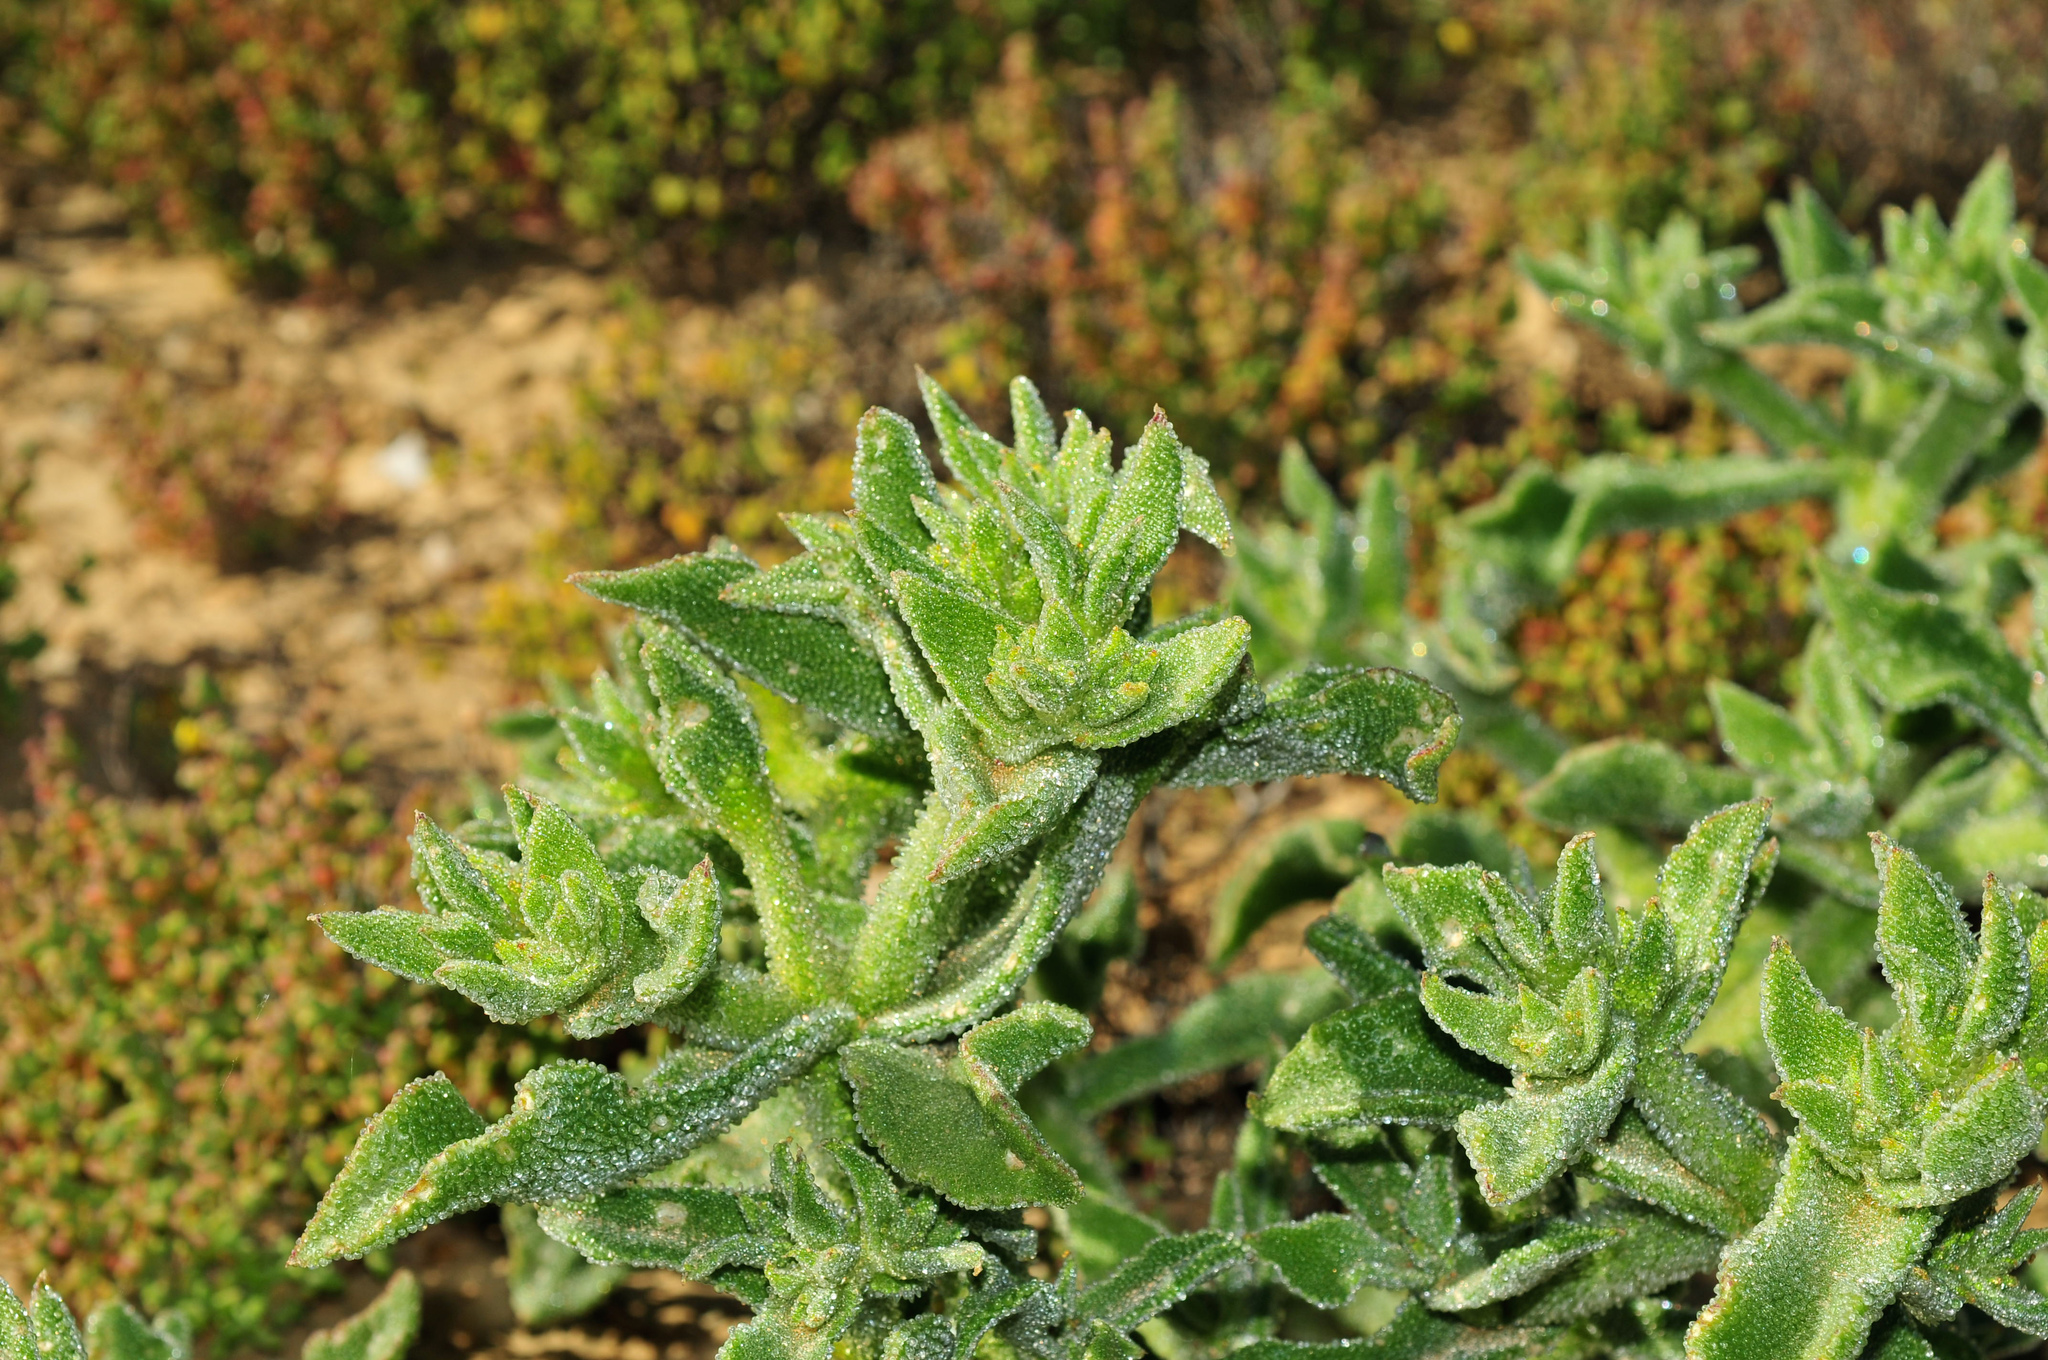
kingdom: Plantae
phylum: Tracheophyta
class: Magnoliopsida
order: Caryophyllales
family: Aizoaceae
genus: Mesembryanthemum
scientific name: Mesembryanthemum crystallinum
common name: Common iceplant
